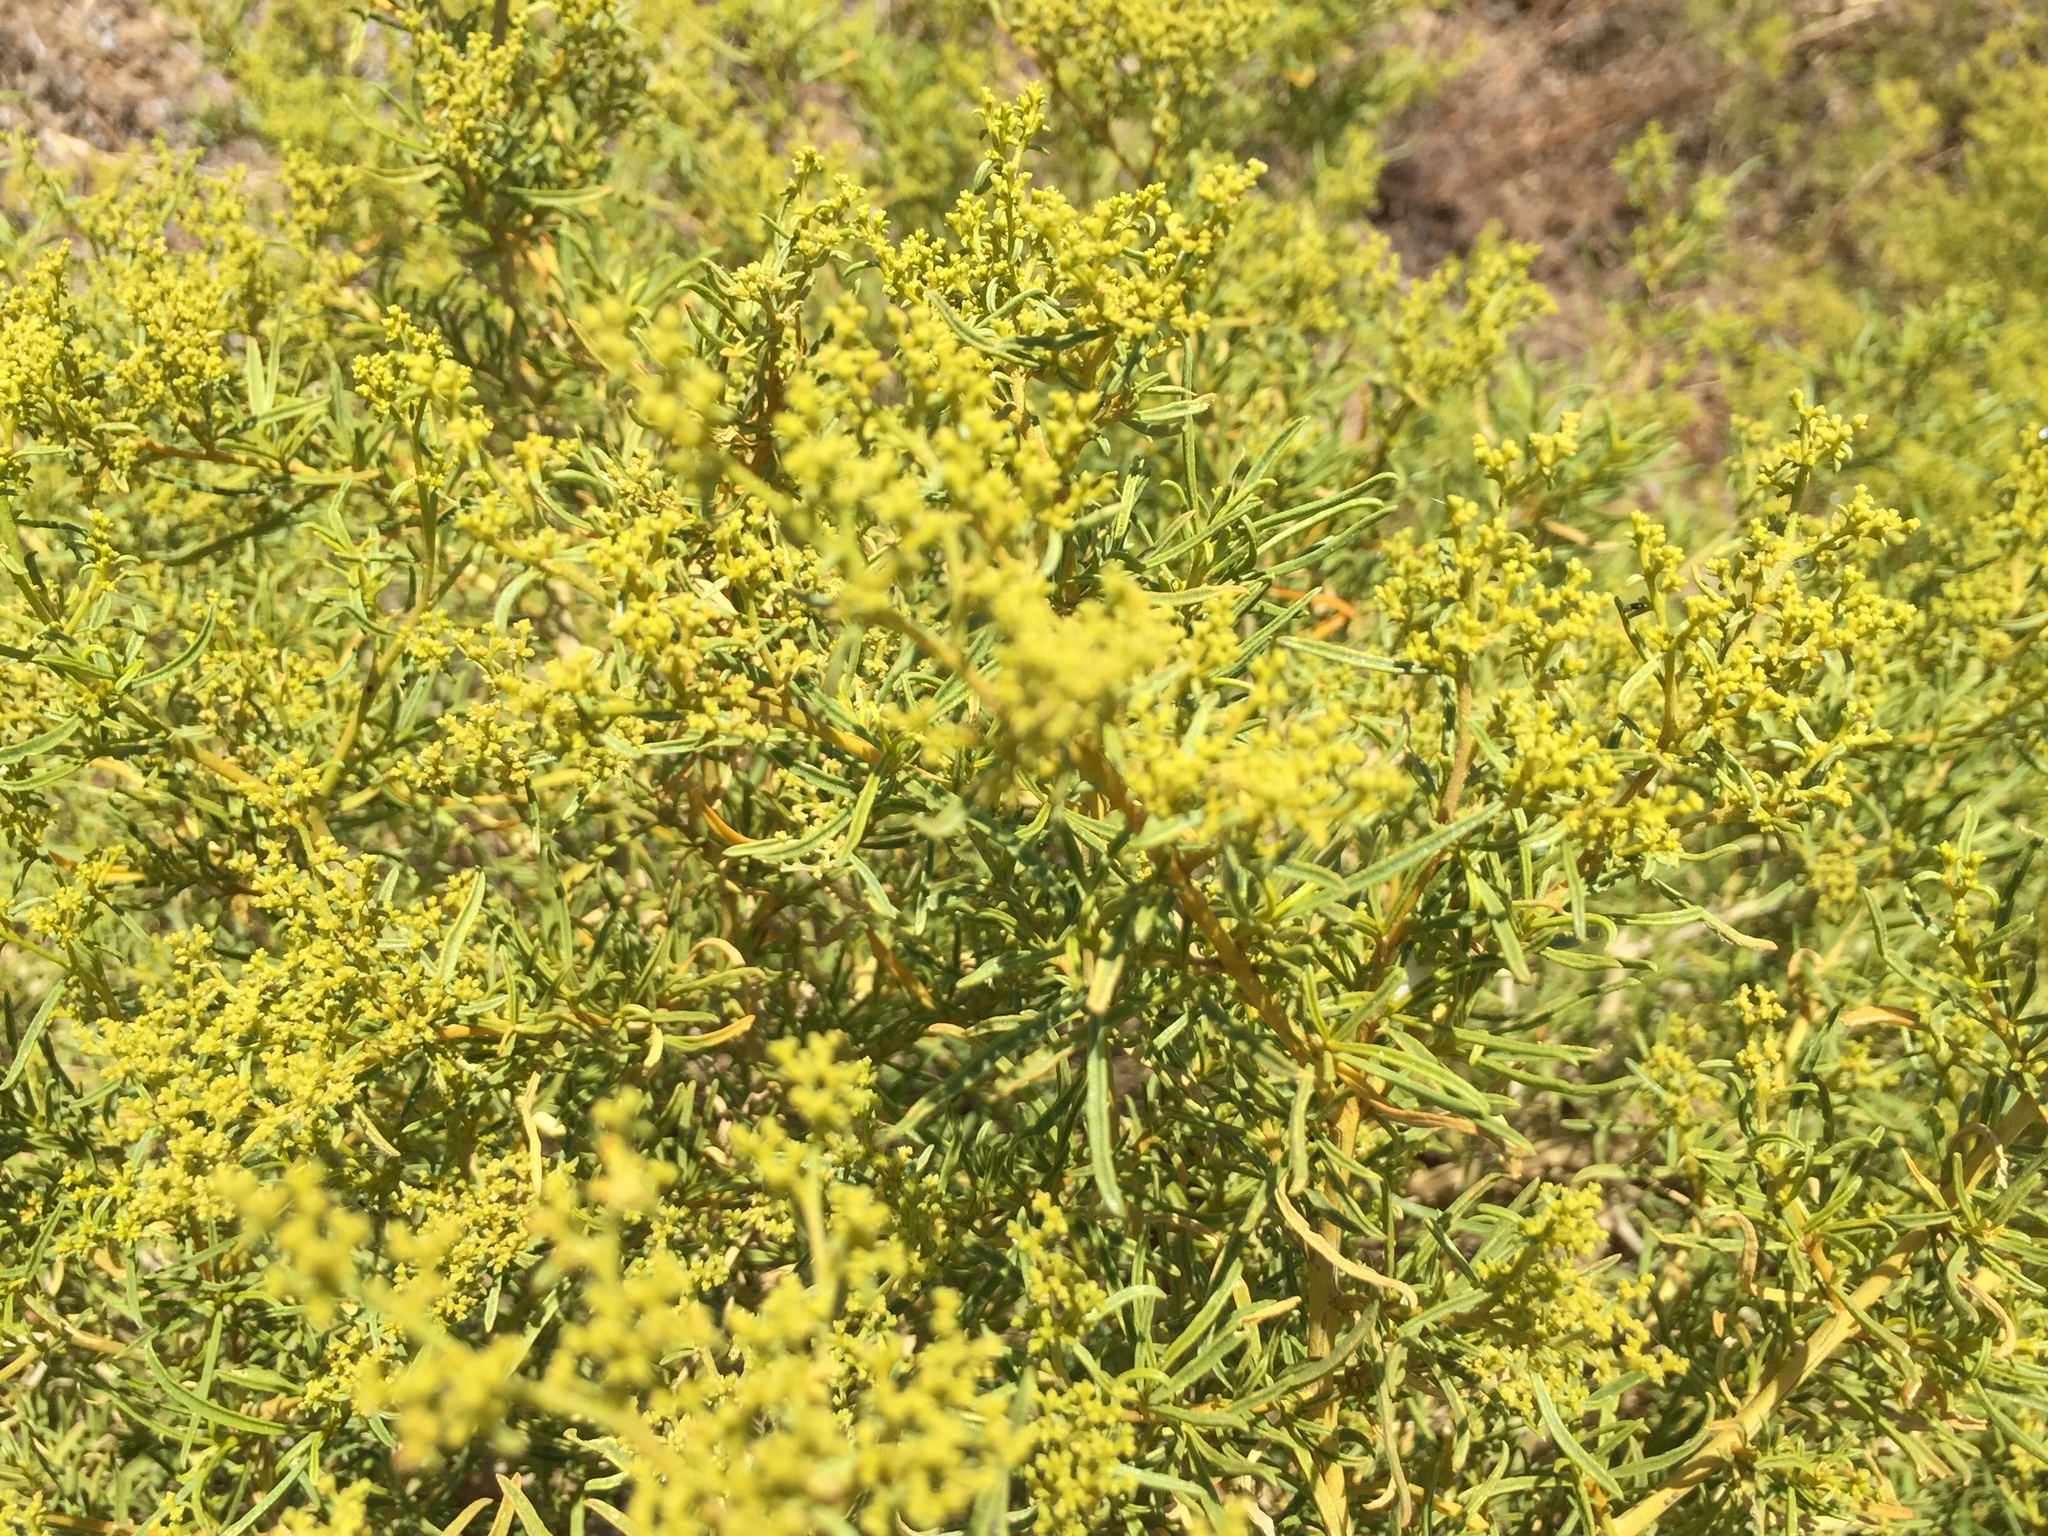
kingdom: Plantae
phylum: Tracheophyta
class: Magnoliopsida
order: Caryophyllales
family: Aizoaceae
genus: Aizoon
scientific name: Aizoon africanum
